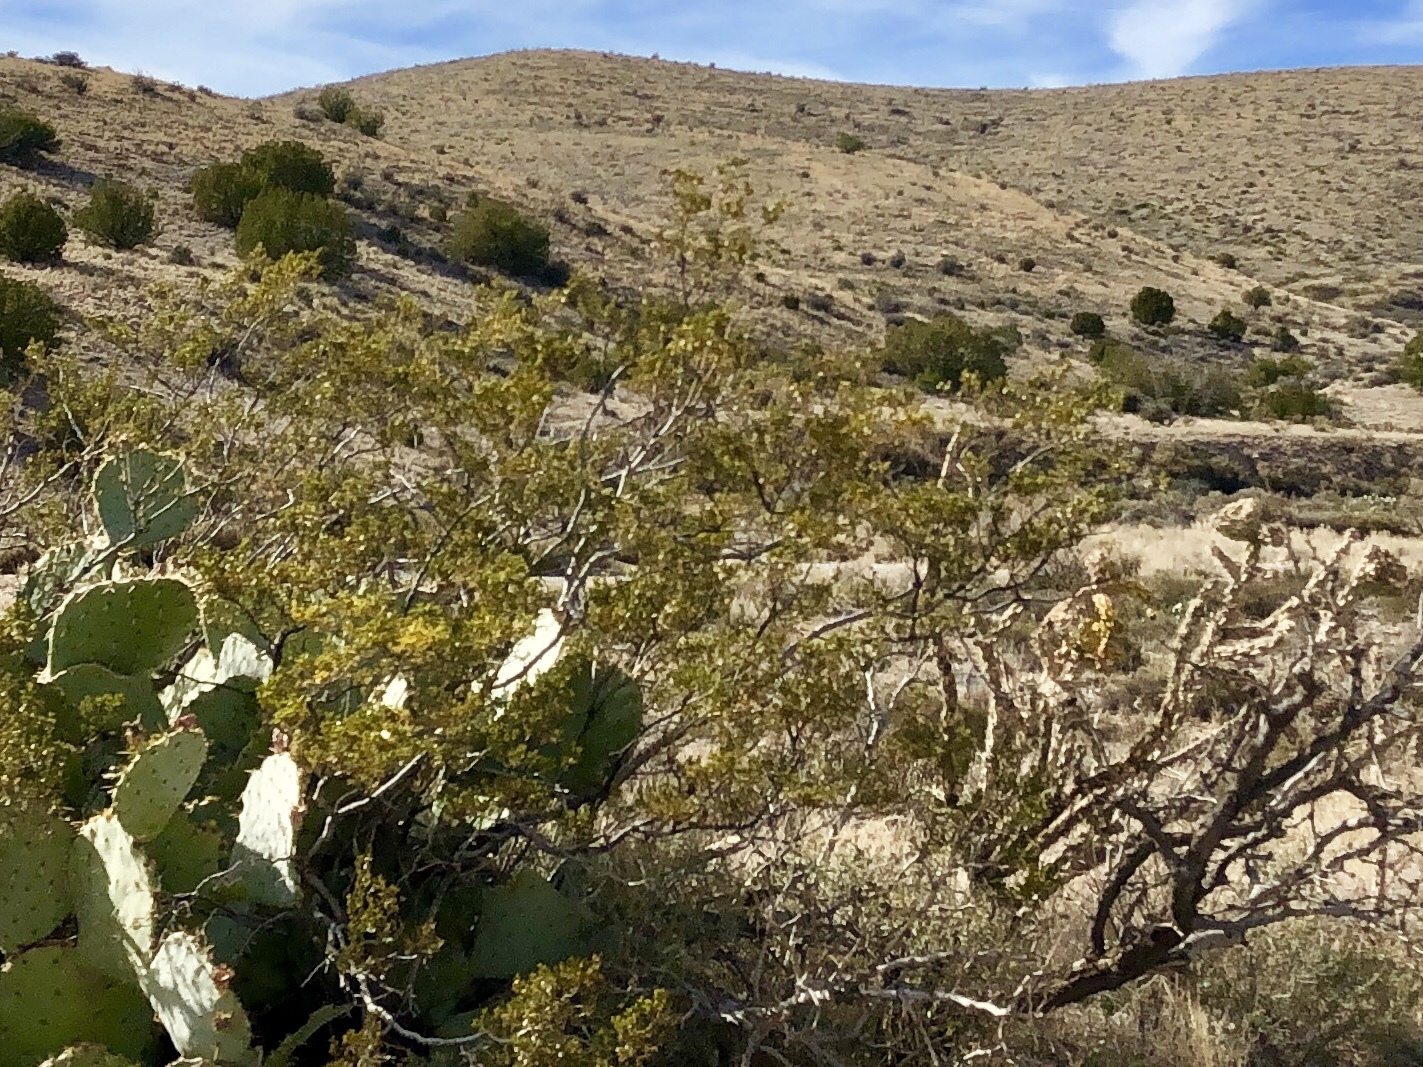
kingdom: Plantae
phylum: Tracheophyta
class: Magnoliopsida
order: Zygophyllales
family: Zygophyllaceae
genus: Larrea
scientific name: Larrea tridentata
